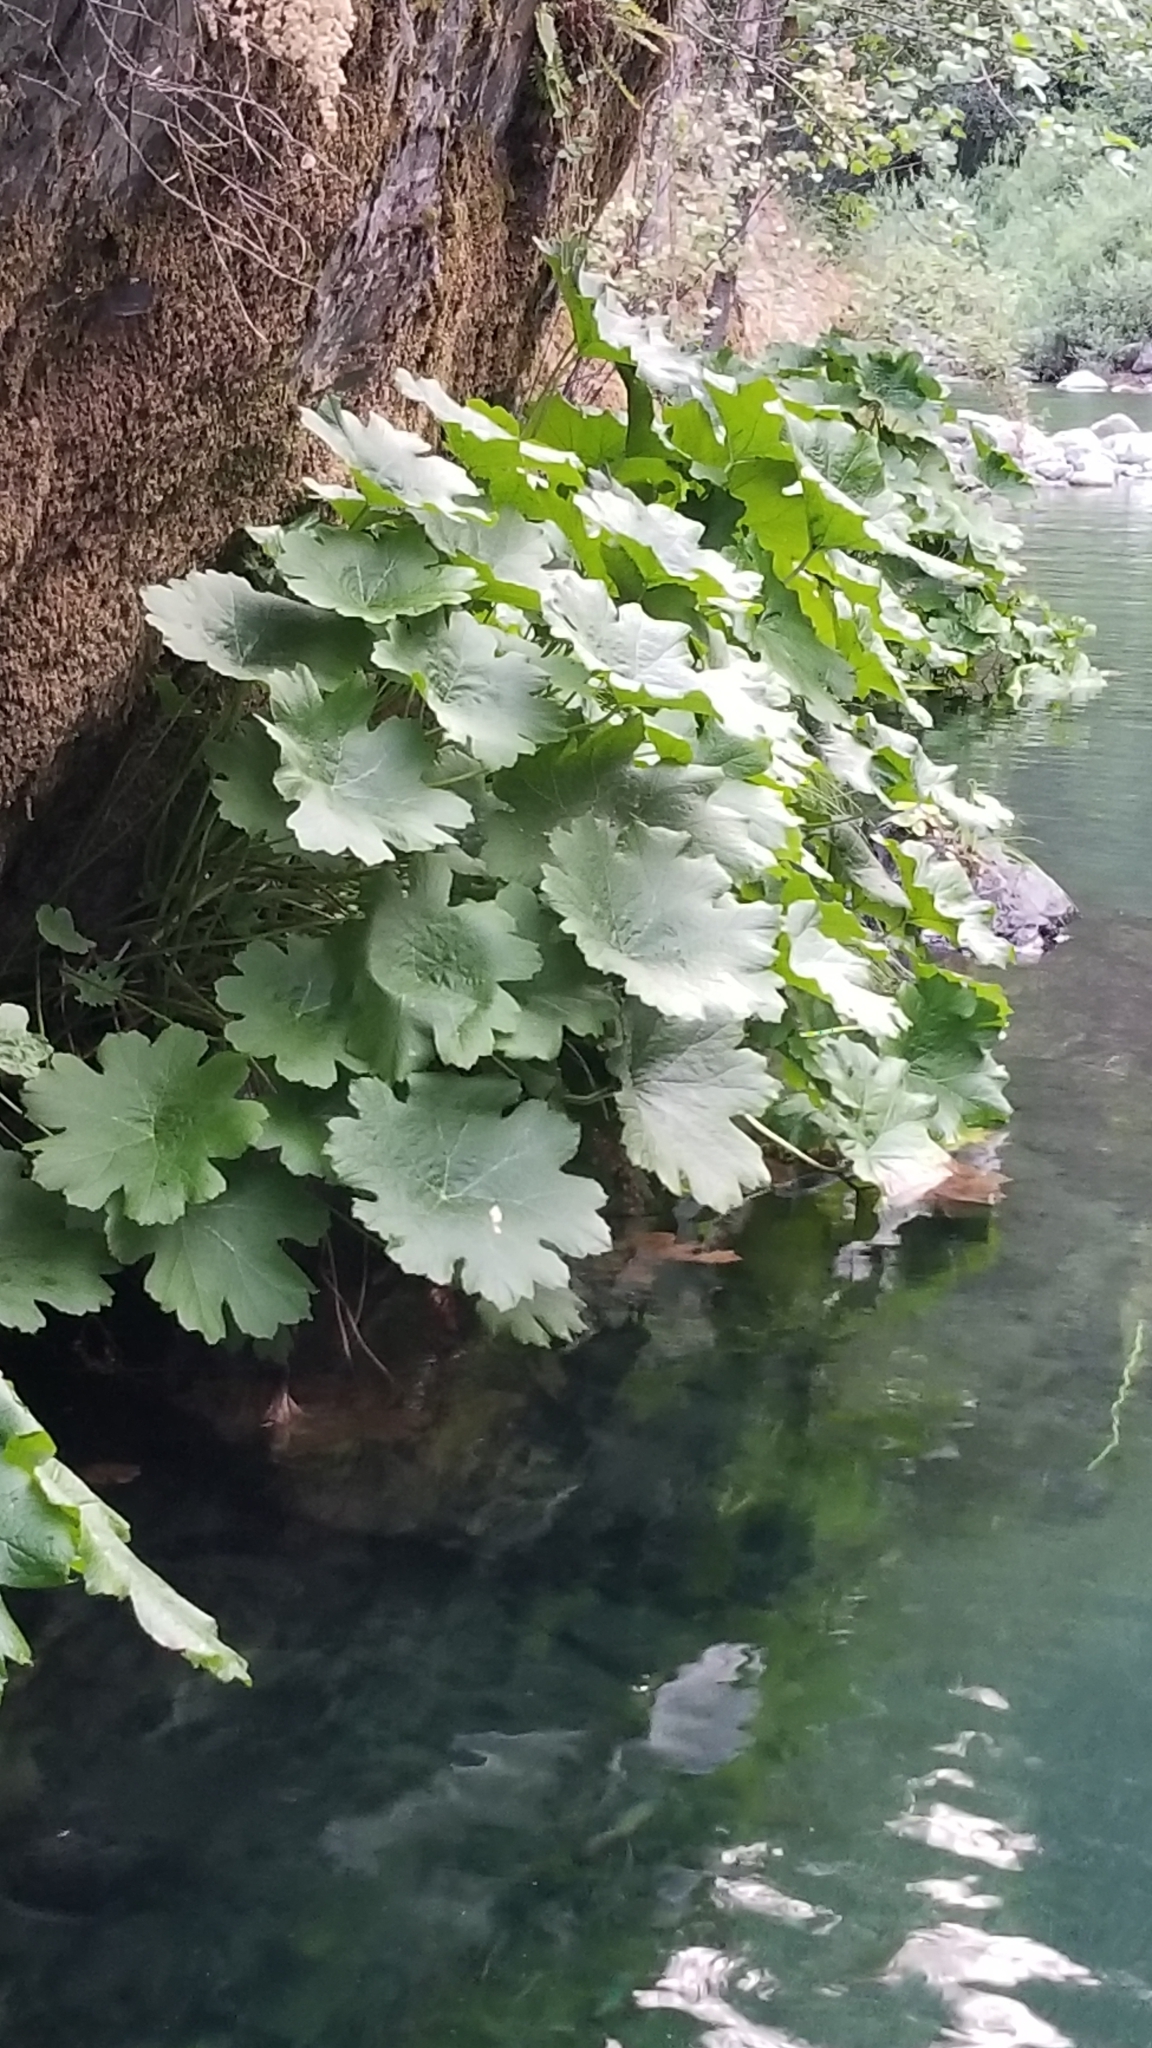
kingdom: Plantae
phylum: Tracheophyta
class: Magnoliopsida
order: Saxifragales
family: Saxifragaceae
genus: Darmera
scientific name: Darmera peltata
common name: Indian-rhubarb
